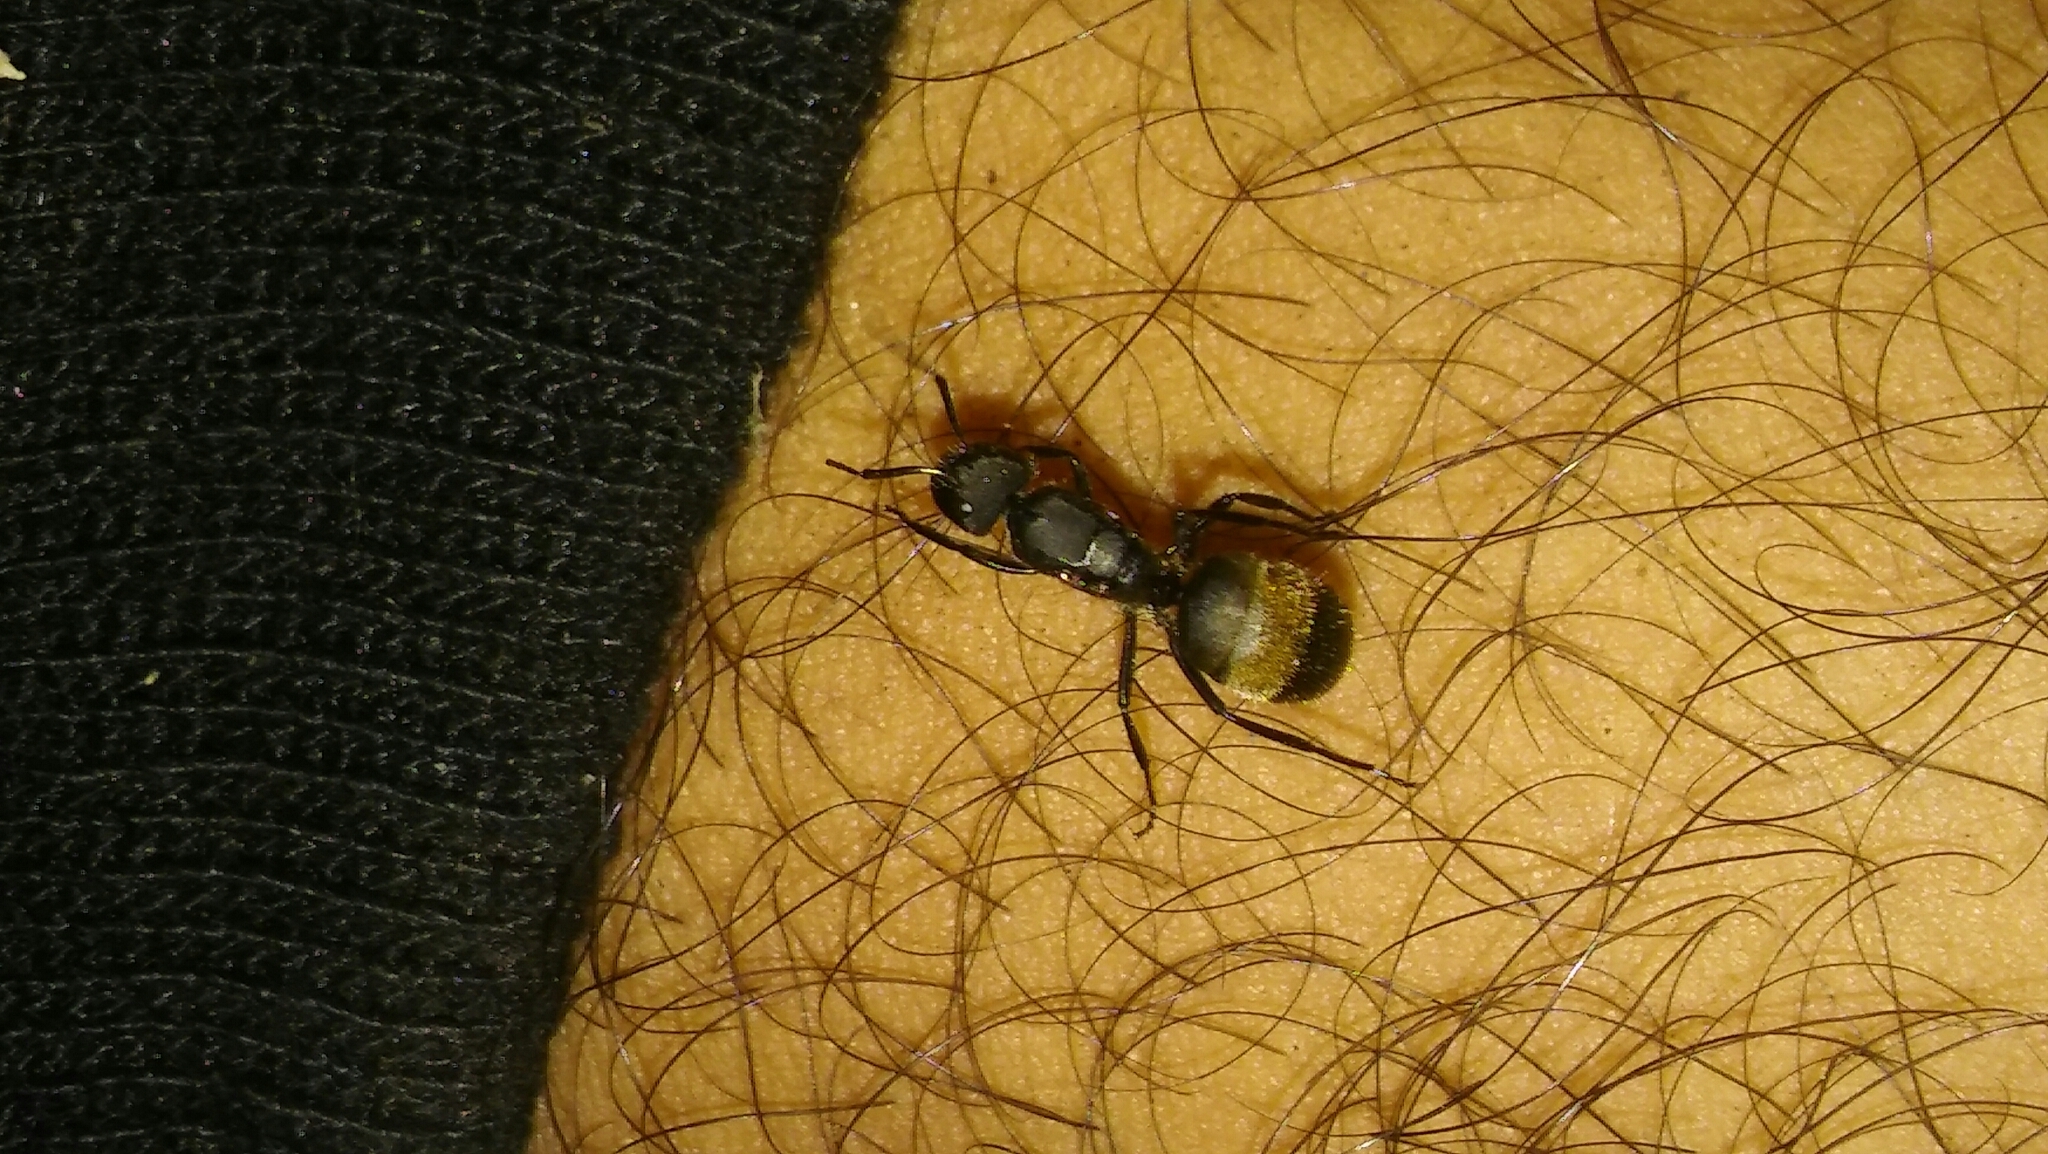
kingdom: Animalia
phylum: Arthropoda
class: Insecta
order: Hymenoptera
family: Formicidae
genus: Camponotus
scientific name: Camponotus mus
